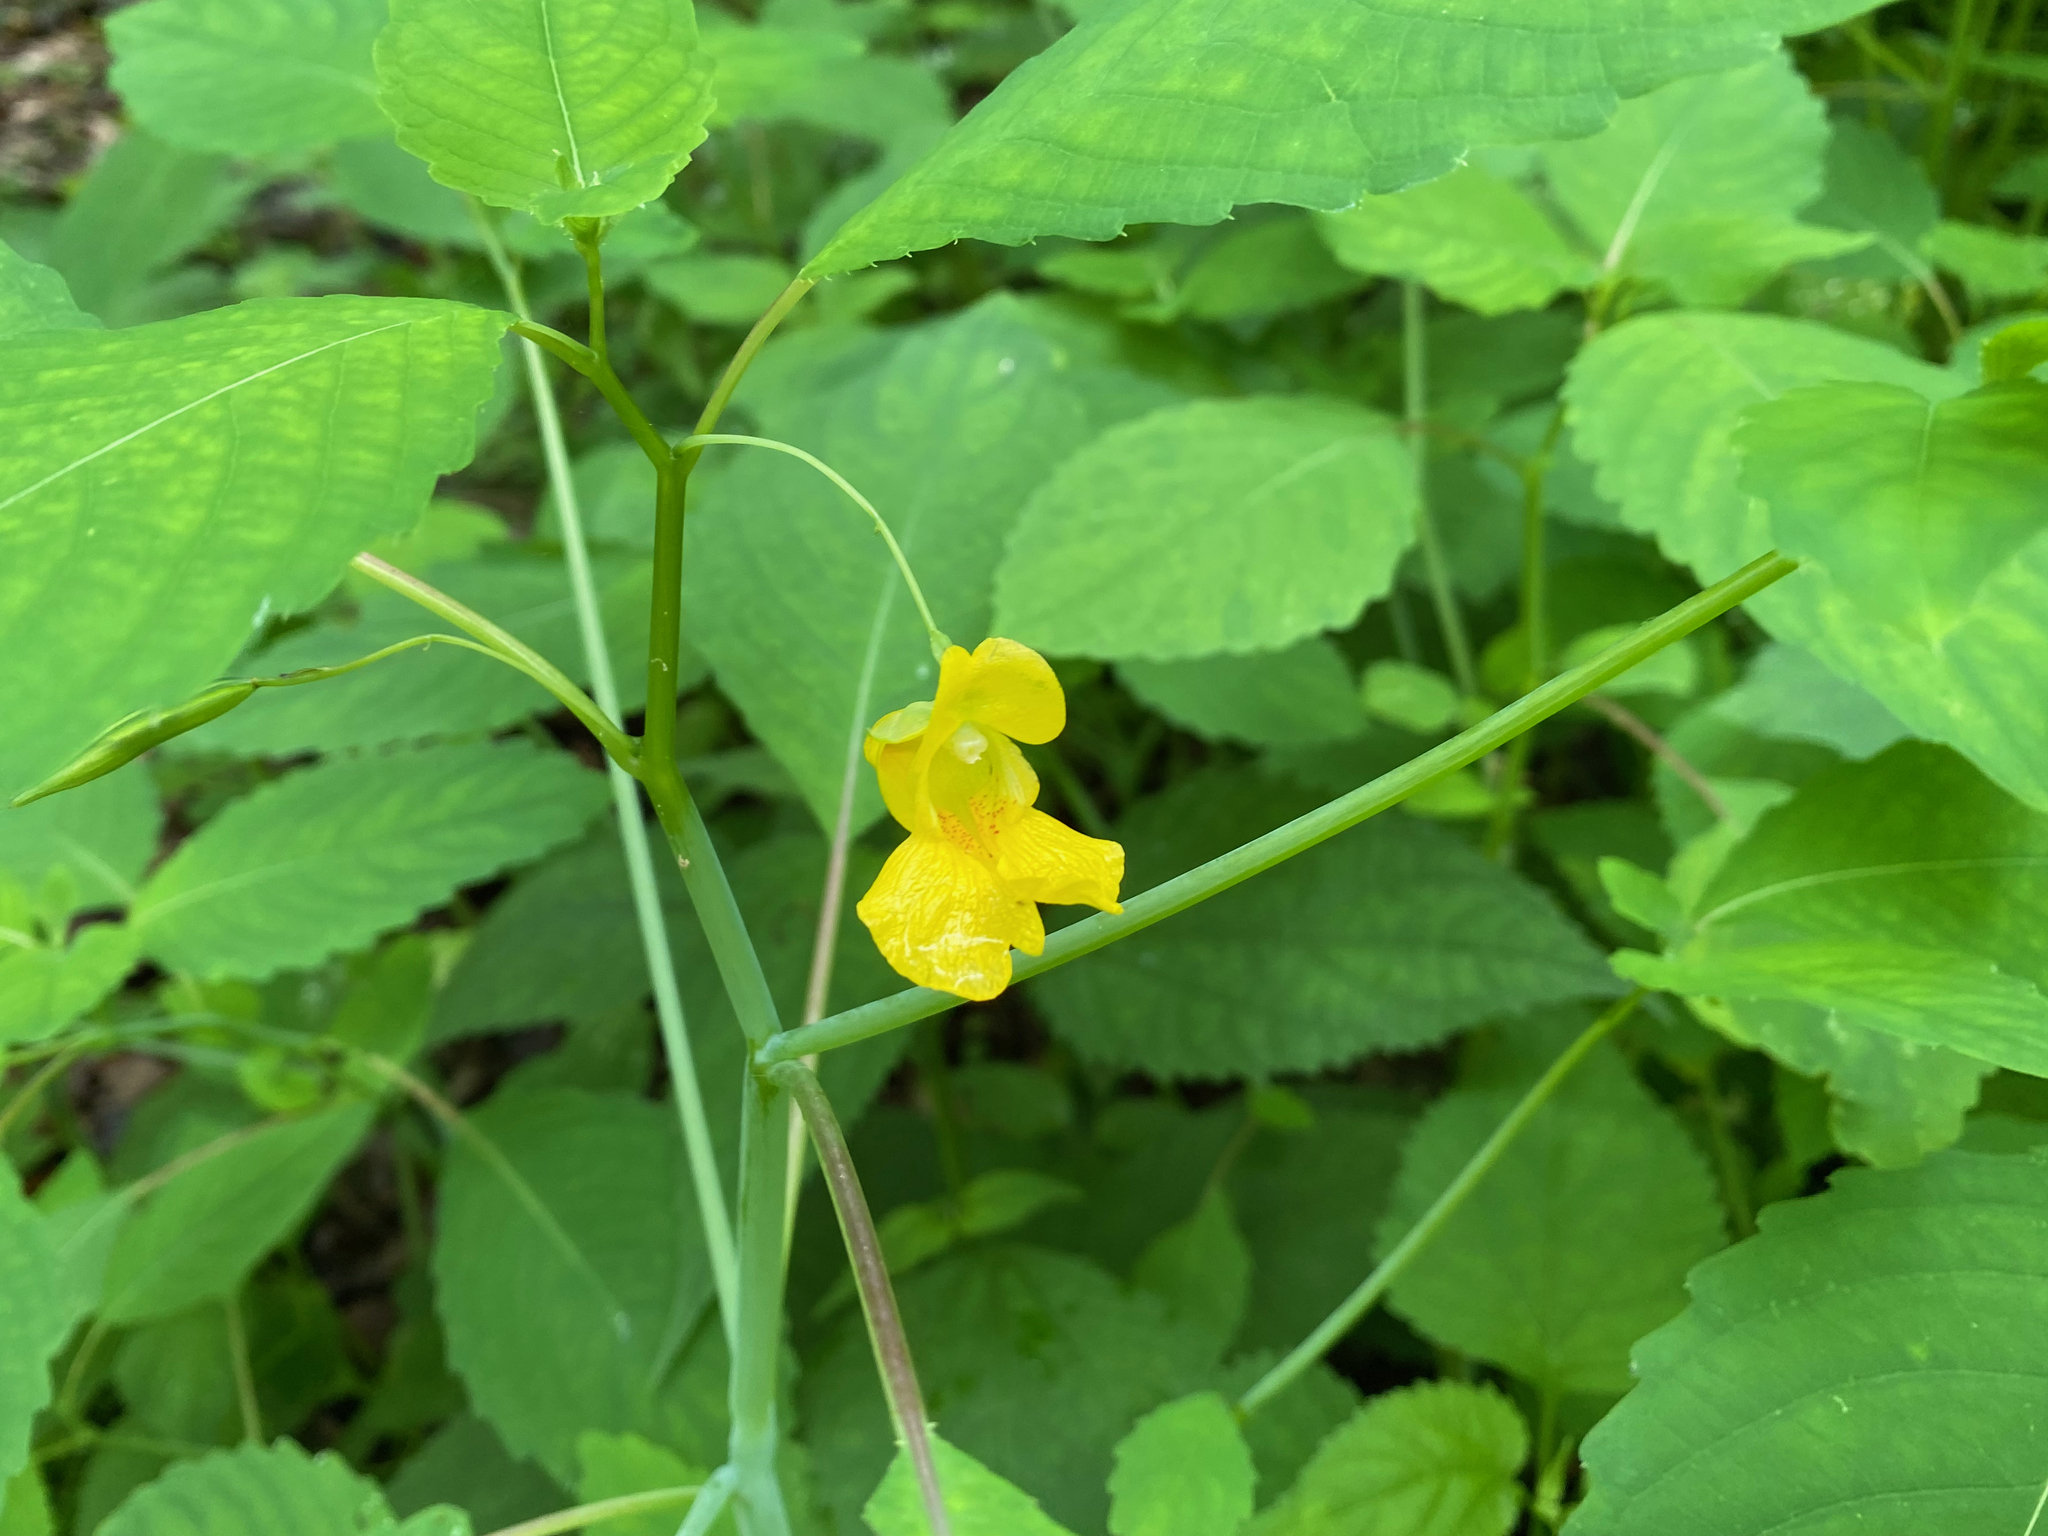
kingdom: Plantae
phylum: Tracheophyta
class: Magnoliopsida
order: Ericales
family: Balsaminaceae
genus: Impatiens
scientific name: Impatiens pallida
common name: Pale snapweed
